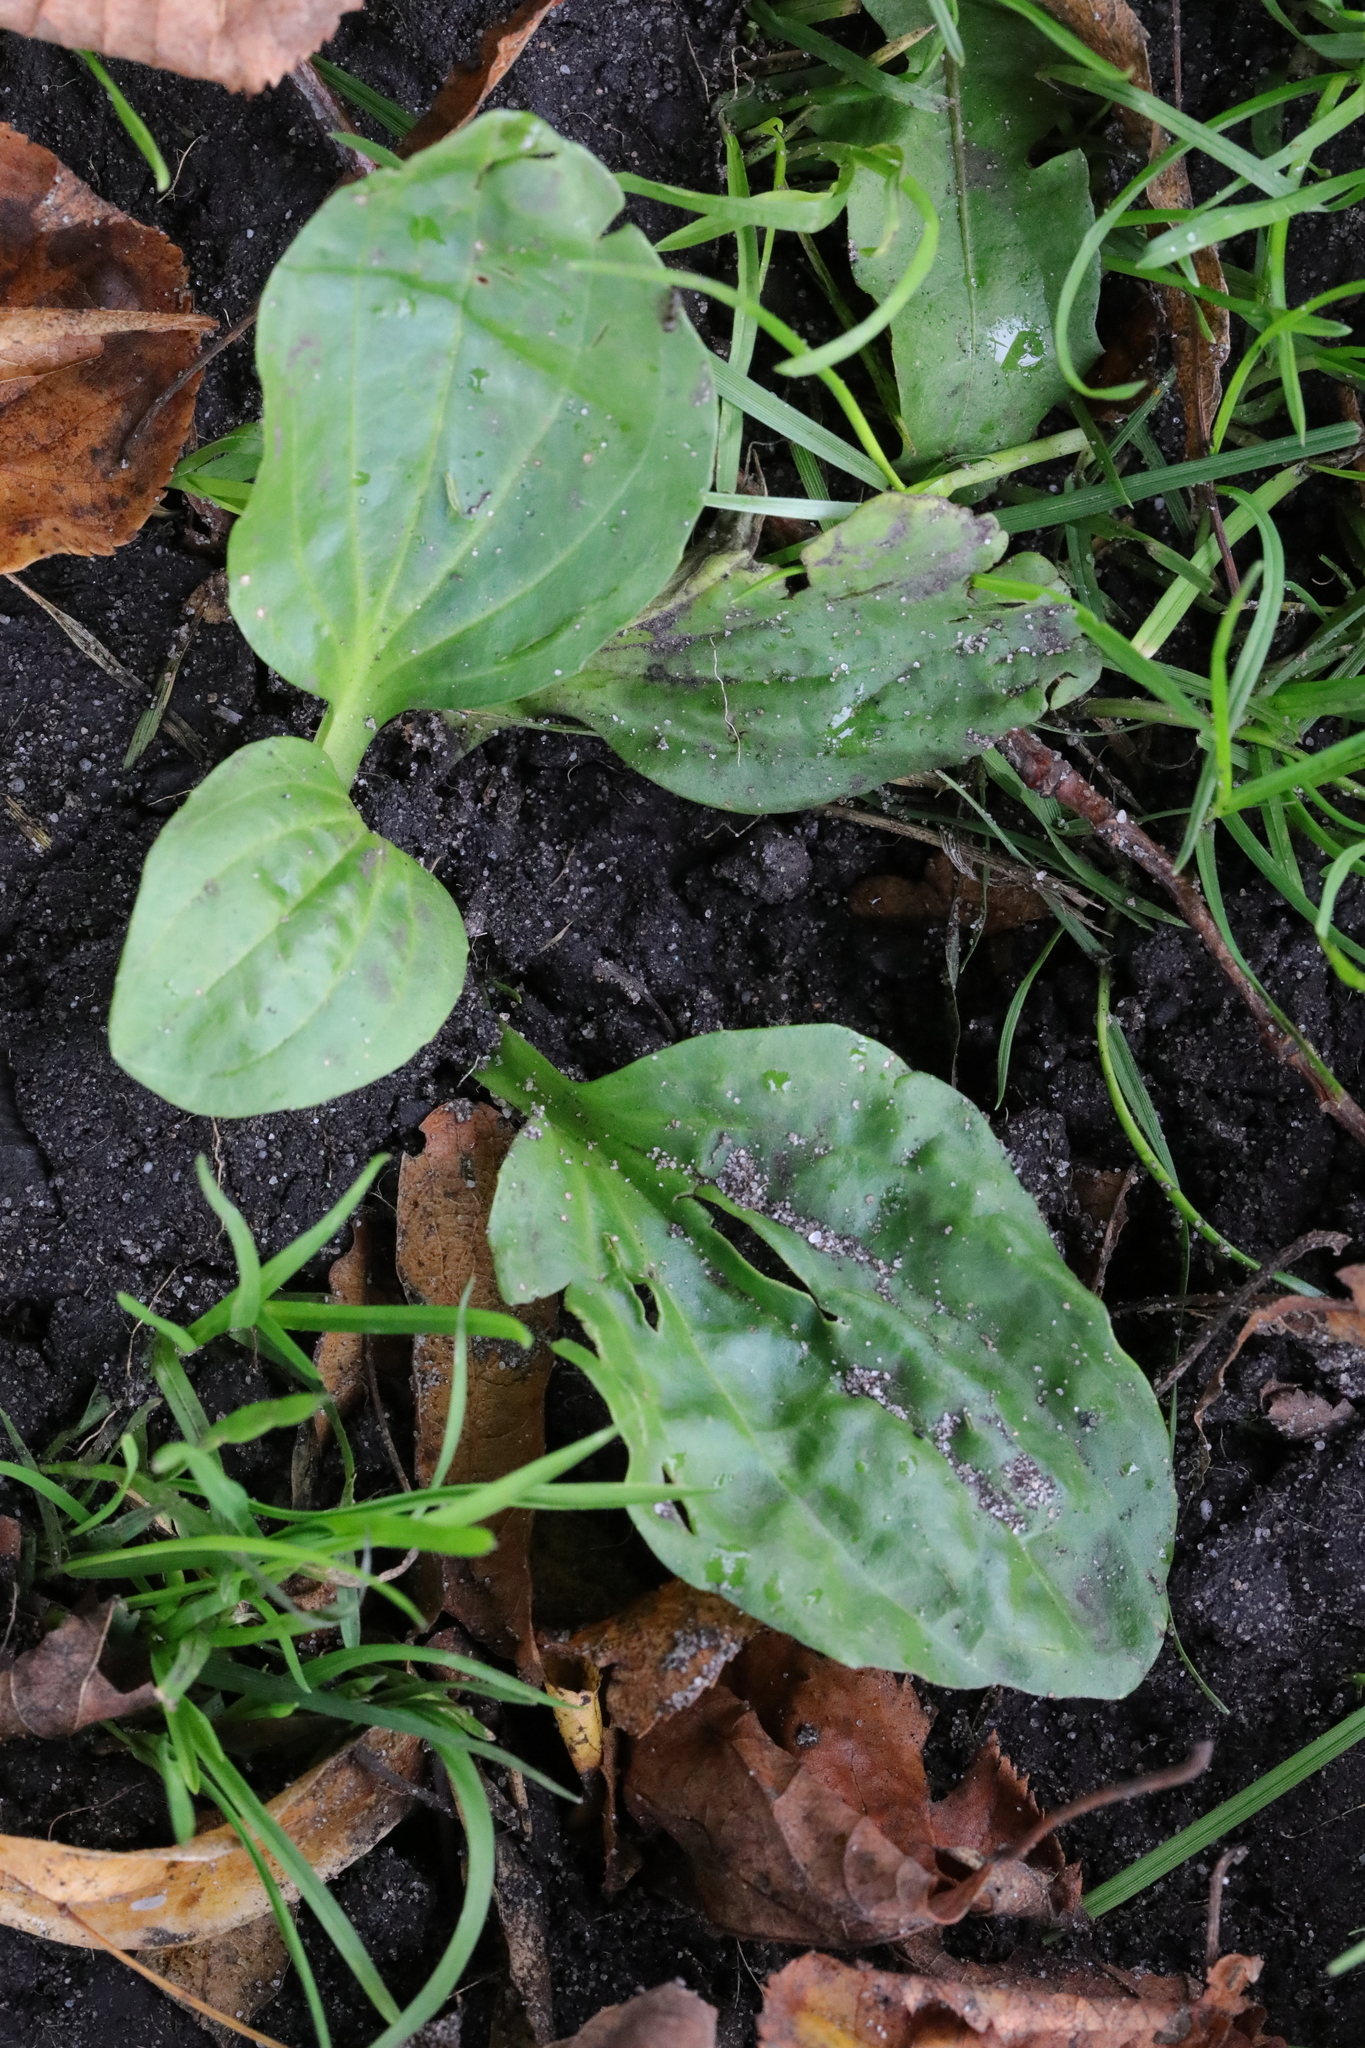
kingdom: Plantae
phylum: Tracheophyta
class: Magnoliopsida
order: Lamiales
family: Plantaginaceae
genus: Plantago
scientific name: Plantago major
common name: Common plantain
